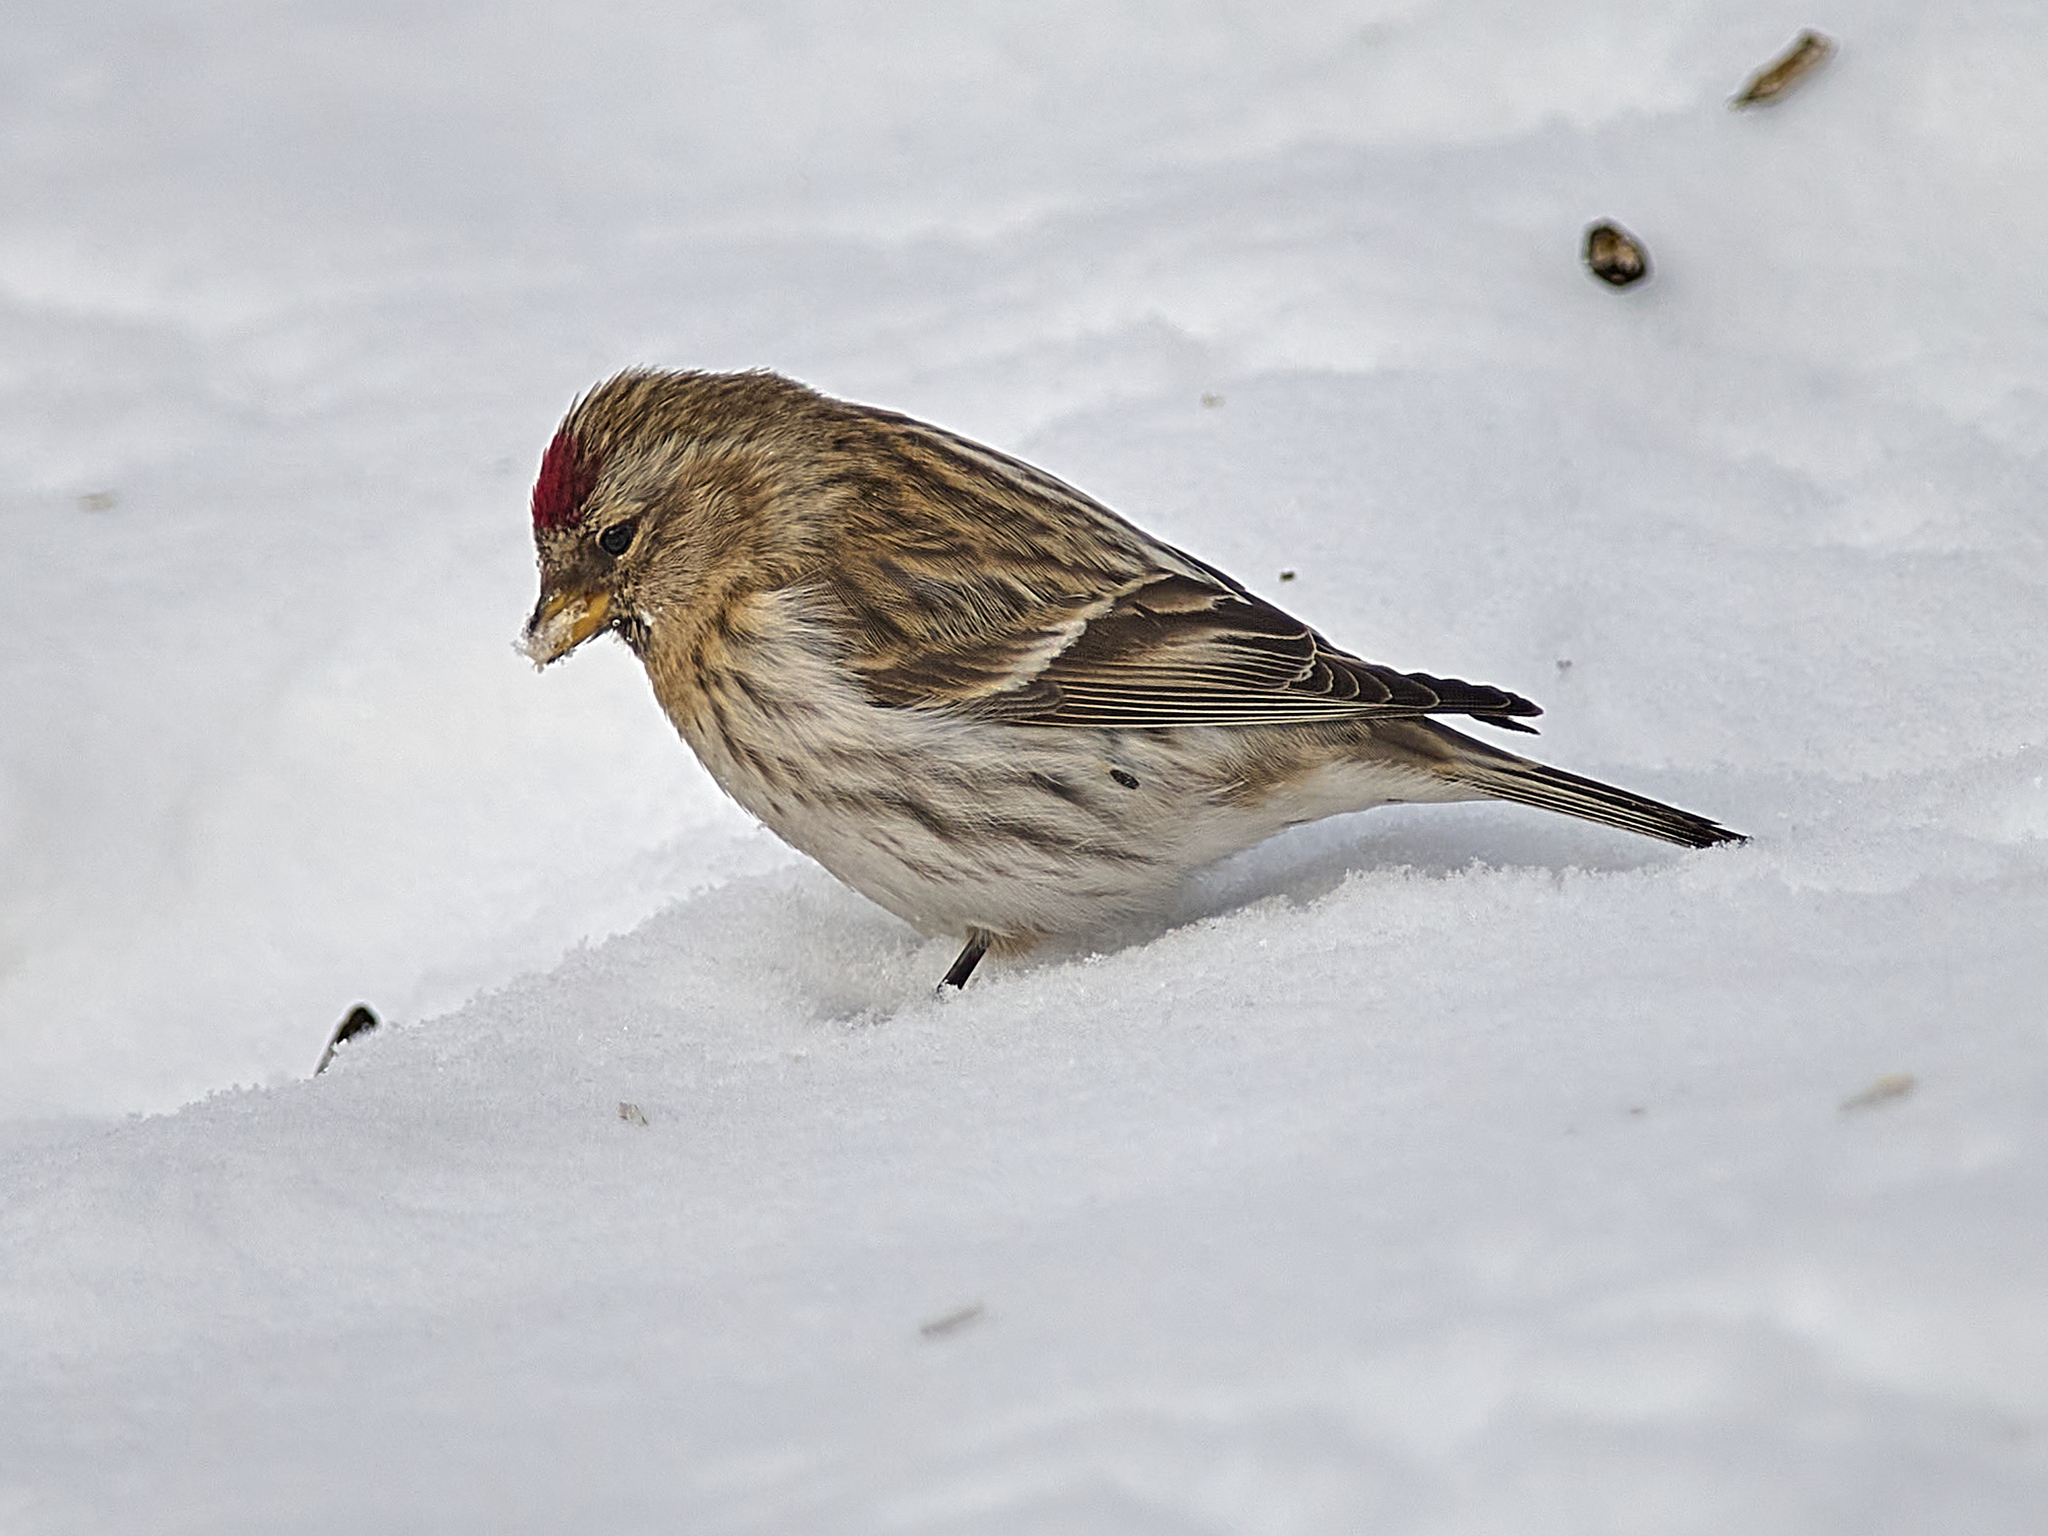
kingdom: Animalia
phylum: Chordata
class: Aves
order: Passeriformes
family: Fringillidae
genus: Acanthis
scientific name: Acanthis flammea
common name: Common redpoll
